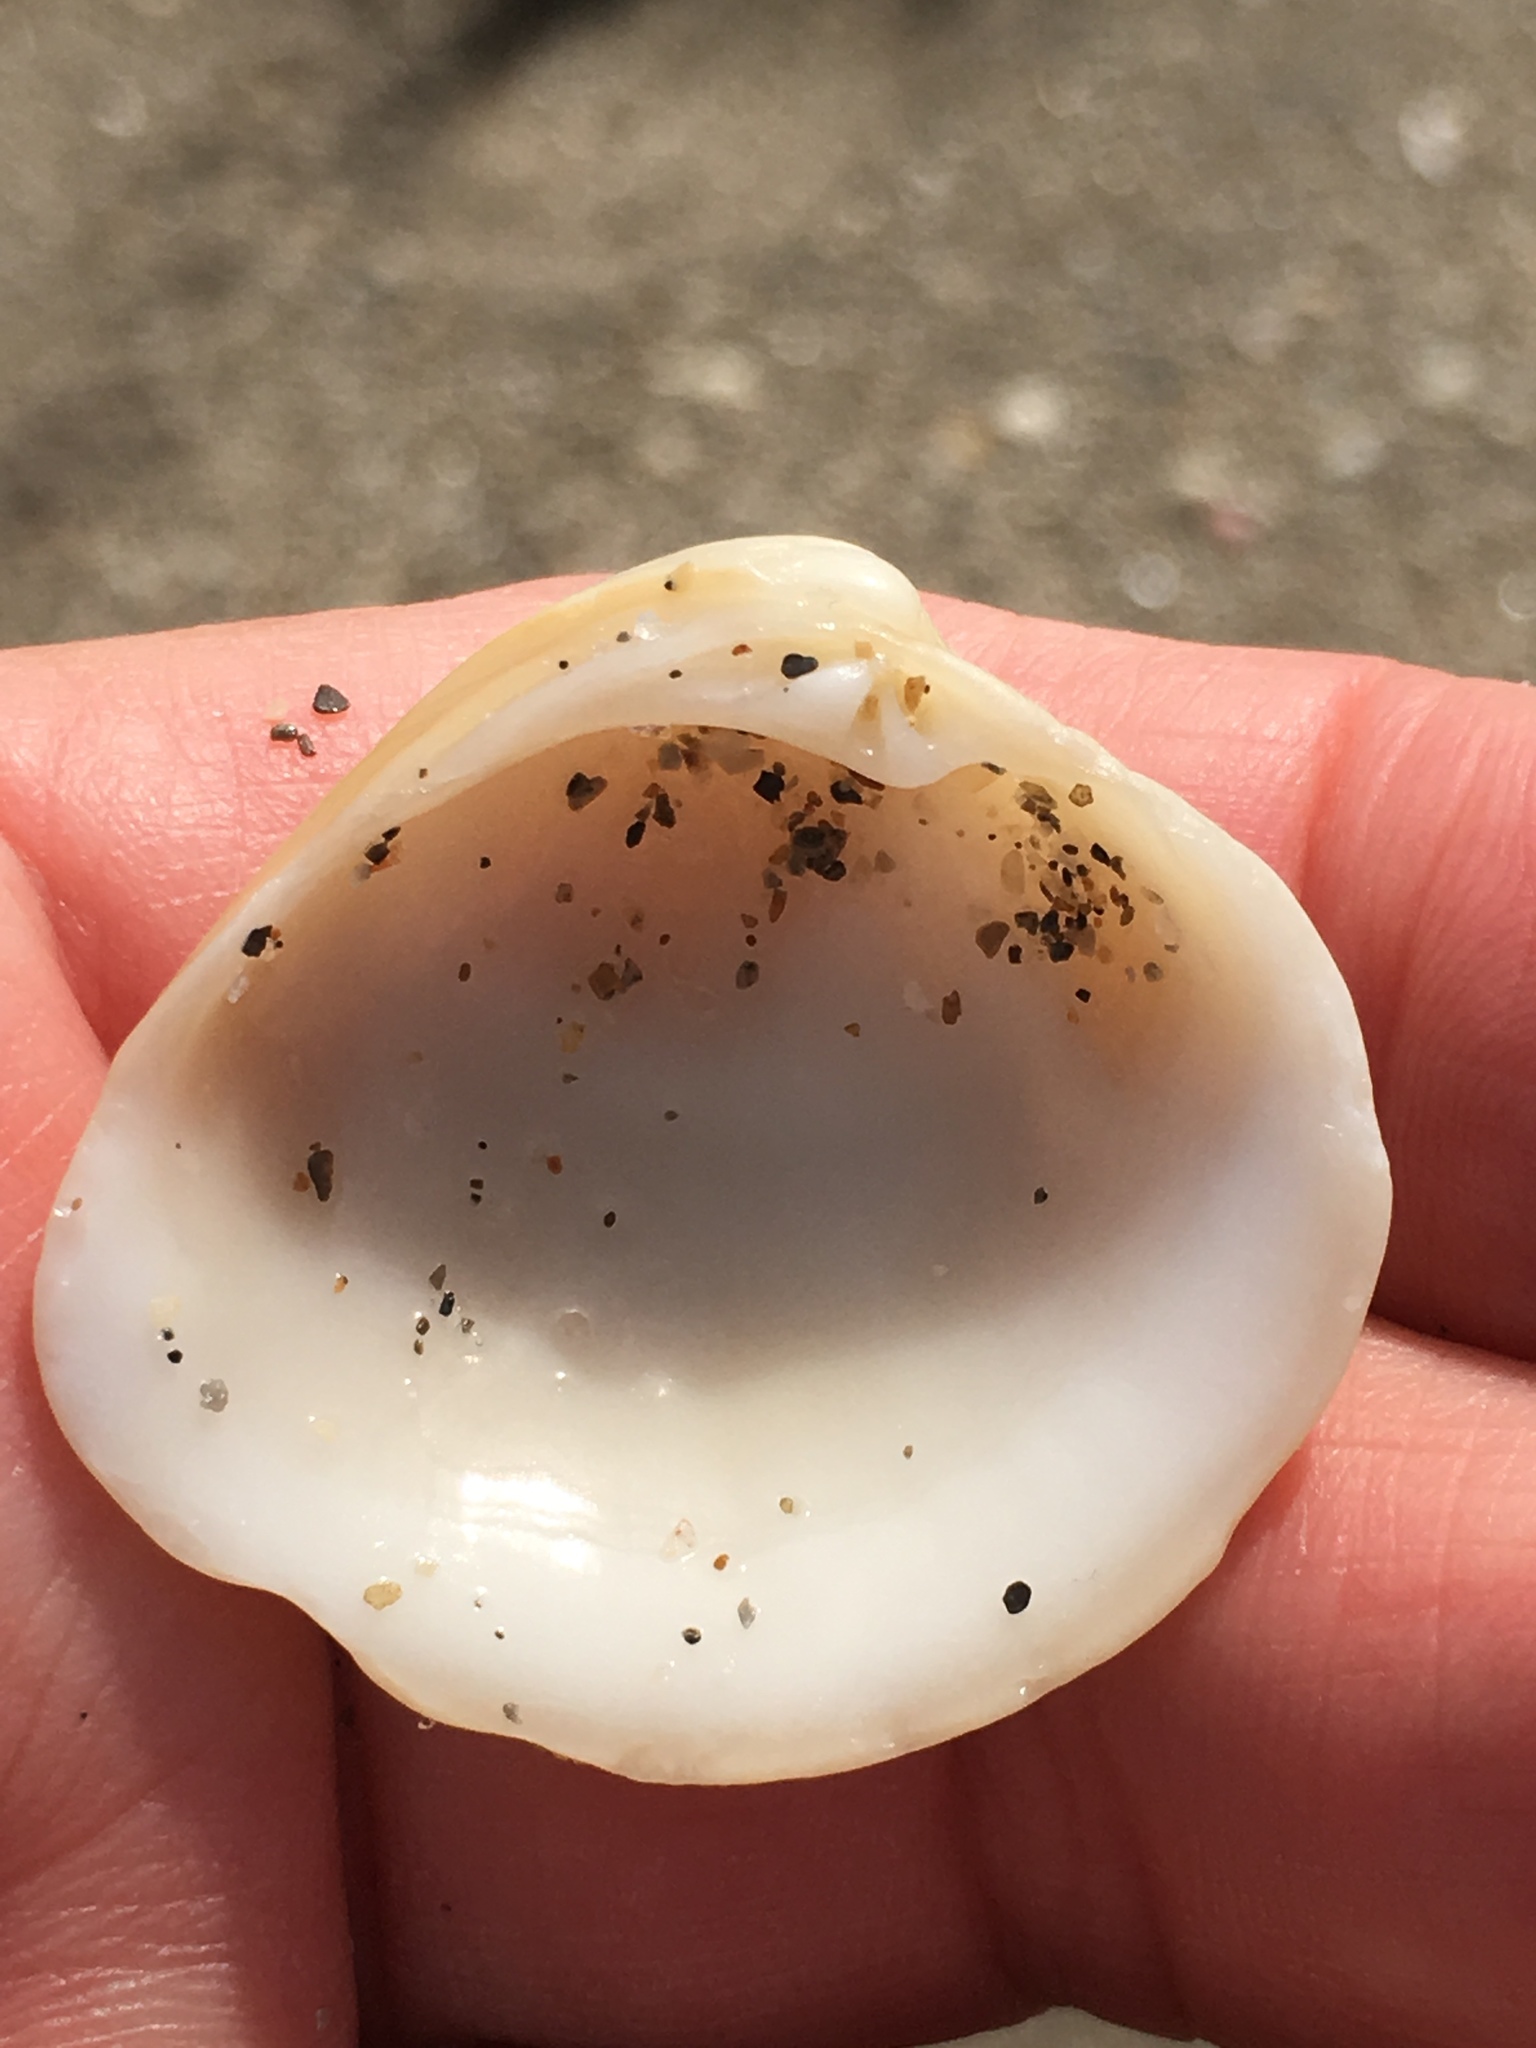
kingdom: Animalia
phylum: Mollusca
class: Bivalvia
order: Venerida
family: Veneridae
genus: Chionopsis
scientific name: Chionopsis intapurpurea
